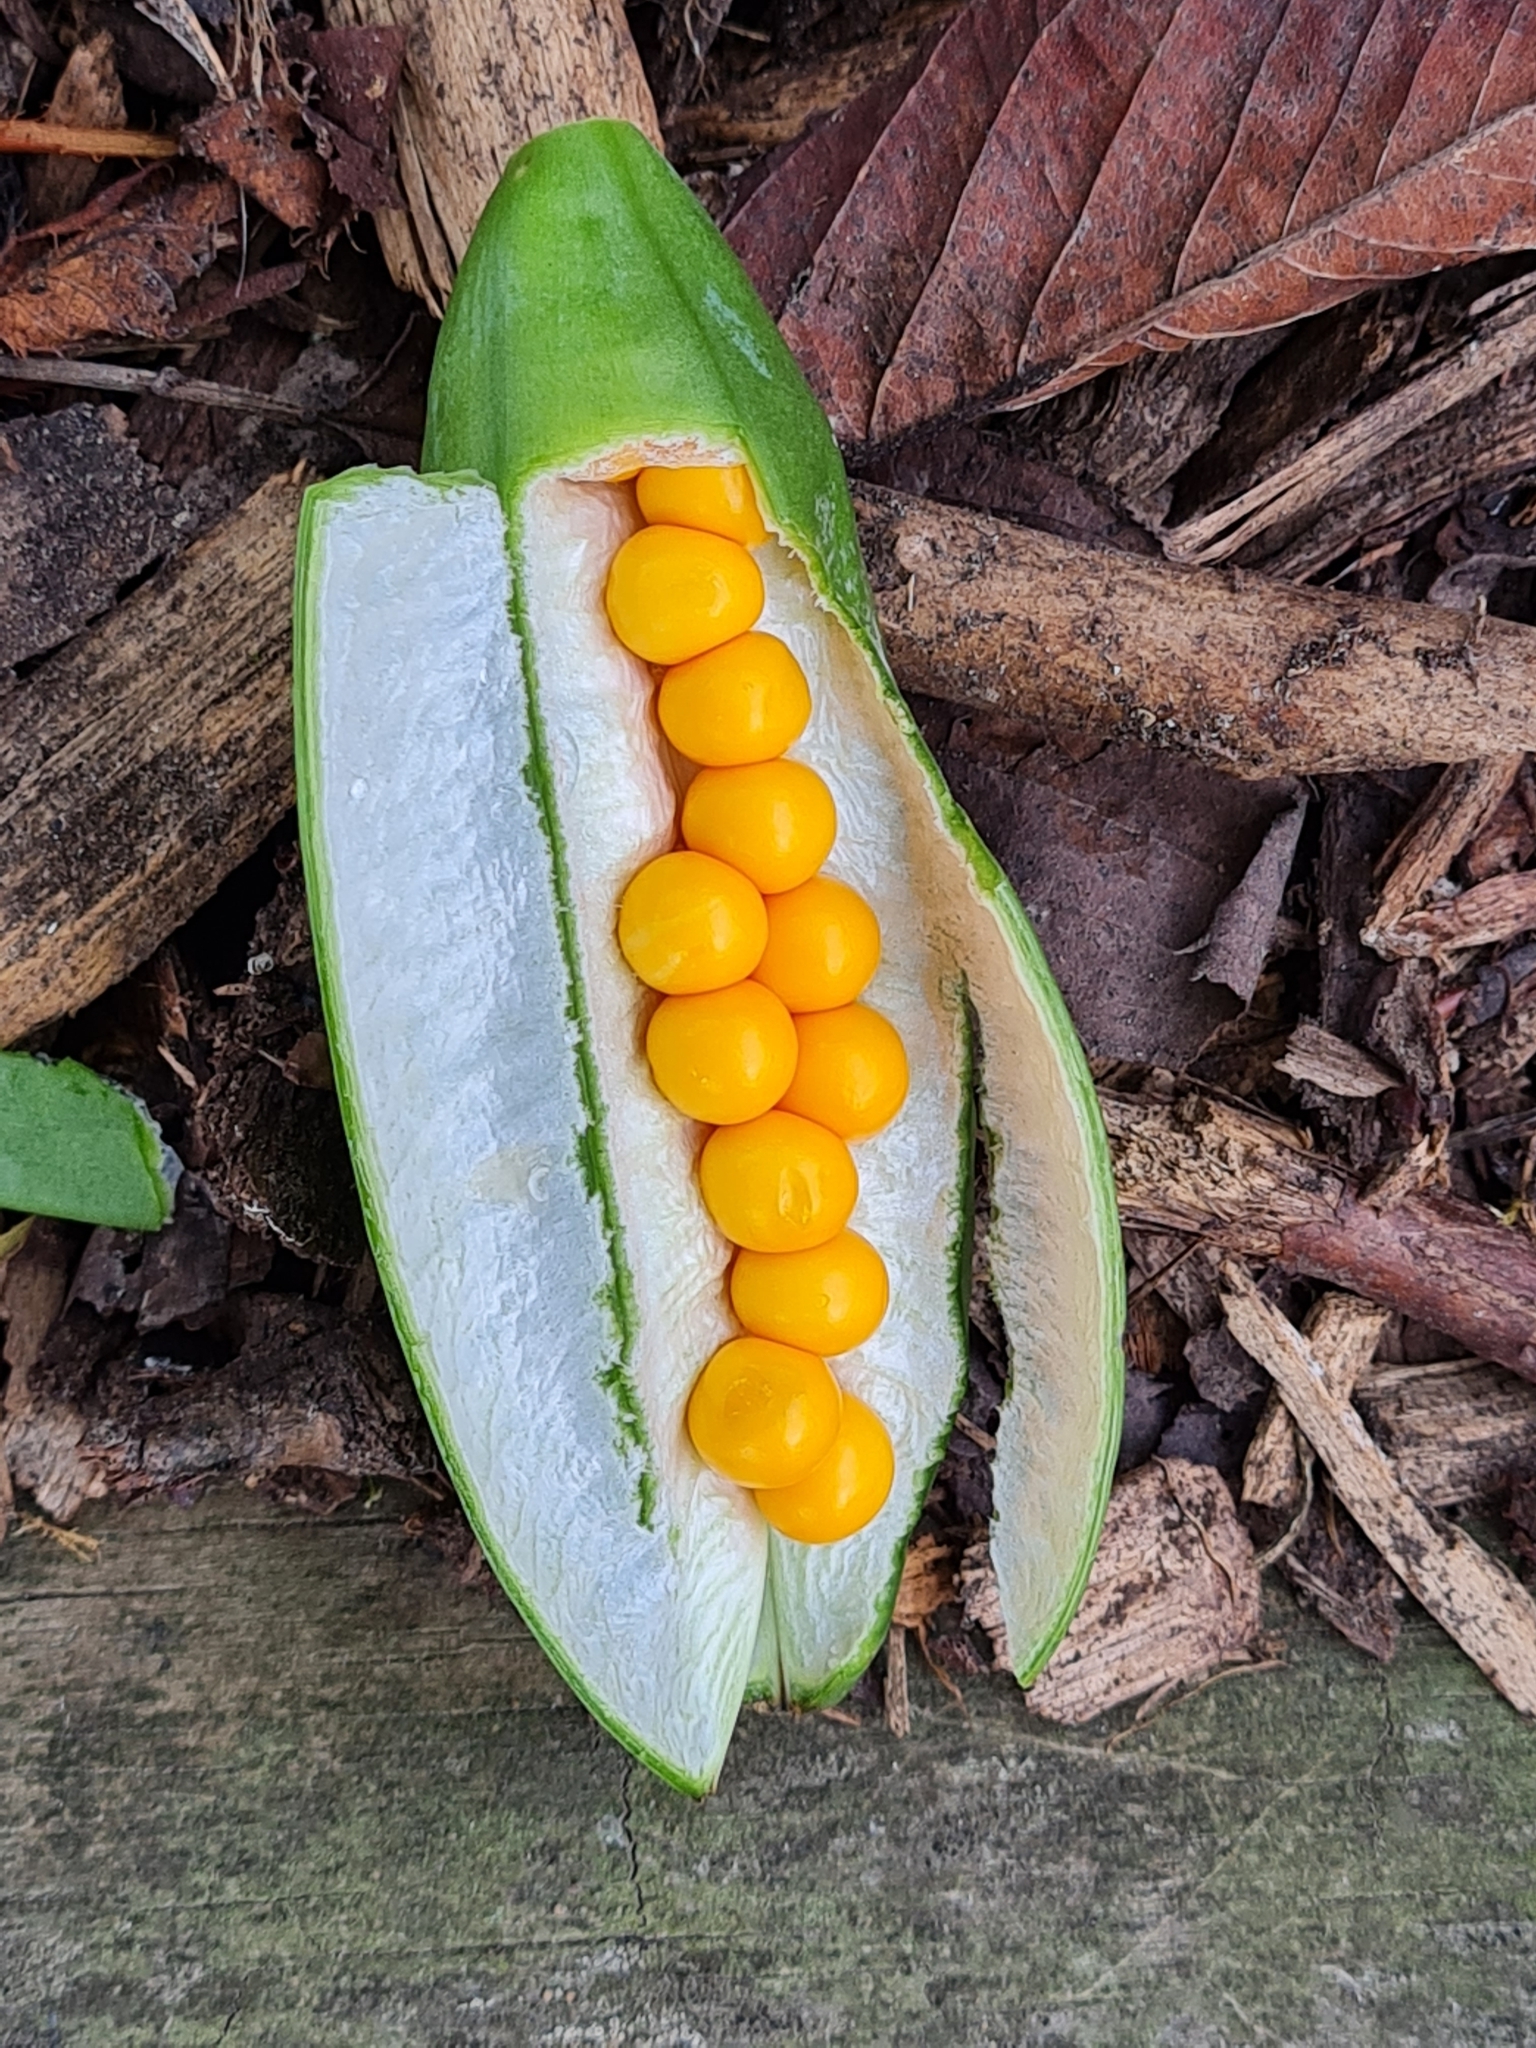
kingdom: Plantae
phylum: Tracheophyta
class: Liliopsida
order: Asparagales
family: Iridaceae
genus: Iris
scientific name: Iris foetidissima
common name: Stinking iris
